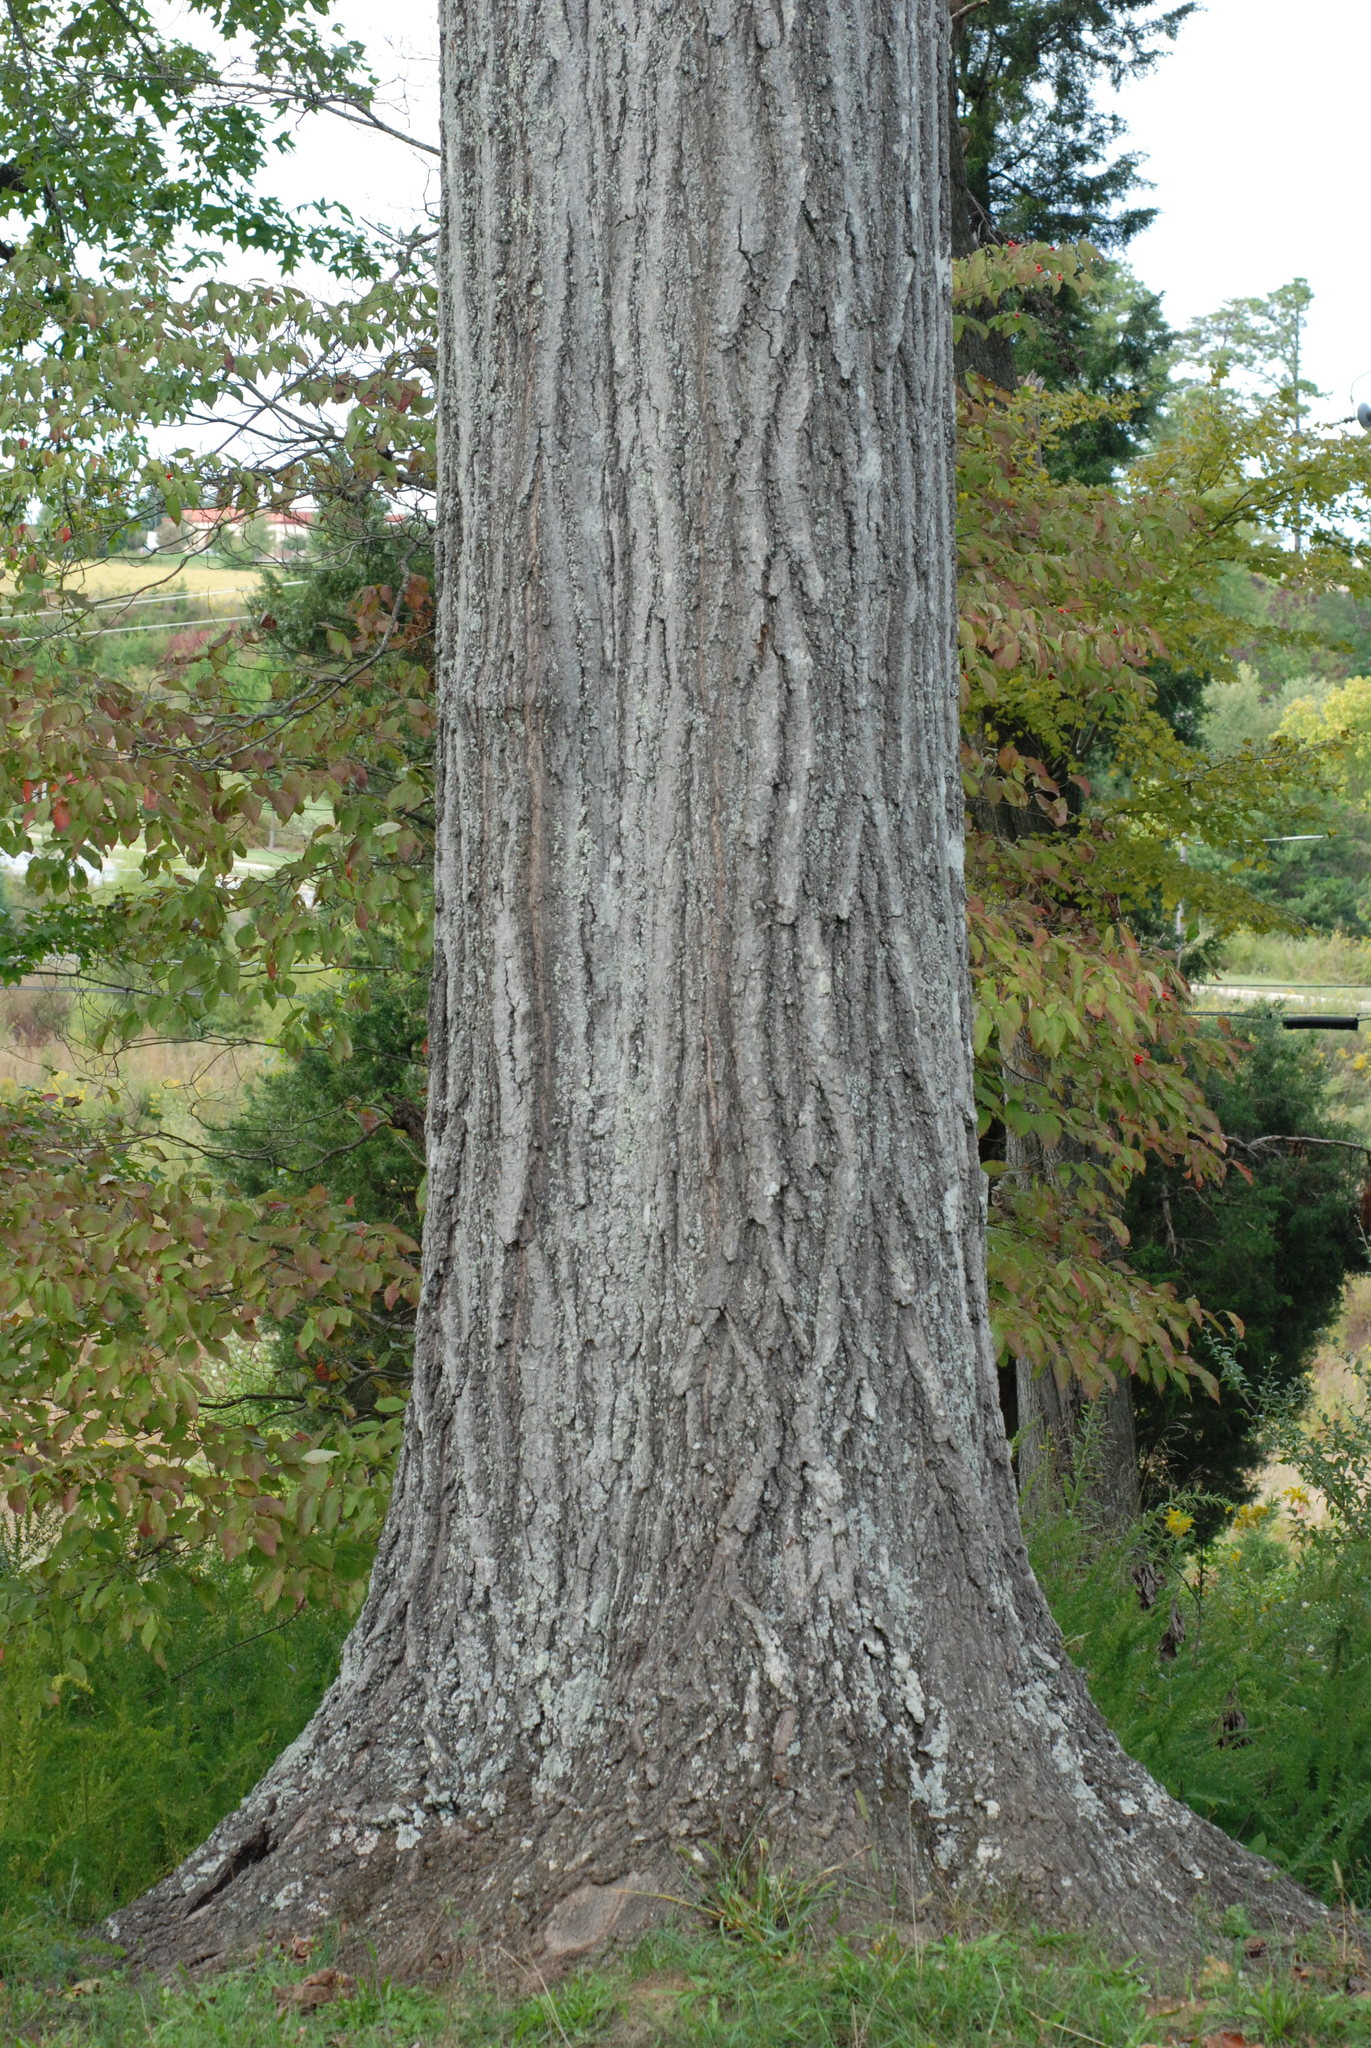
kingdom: Plantae
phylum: Tracheophyta
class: Magnoliopsida
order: Fagales
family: Fagaceae
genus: Quercus
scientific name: Quercus rubra
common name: Red oak
